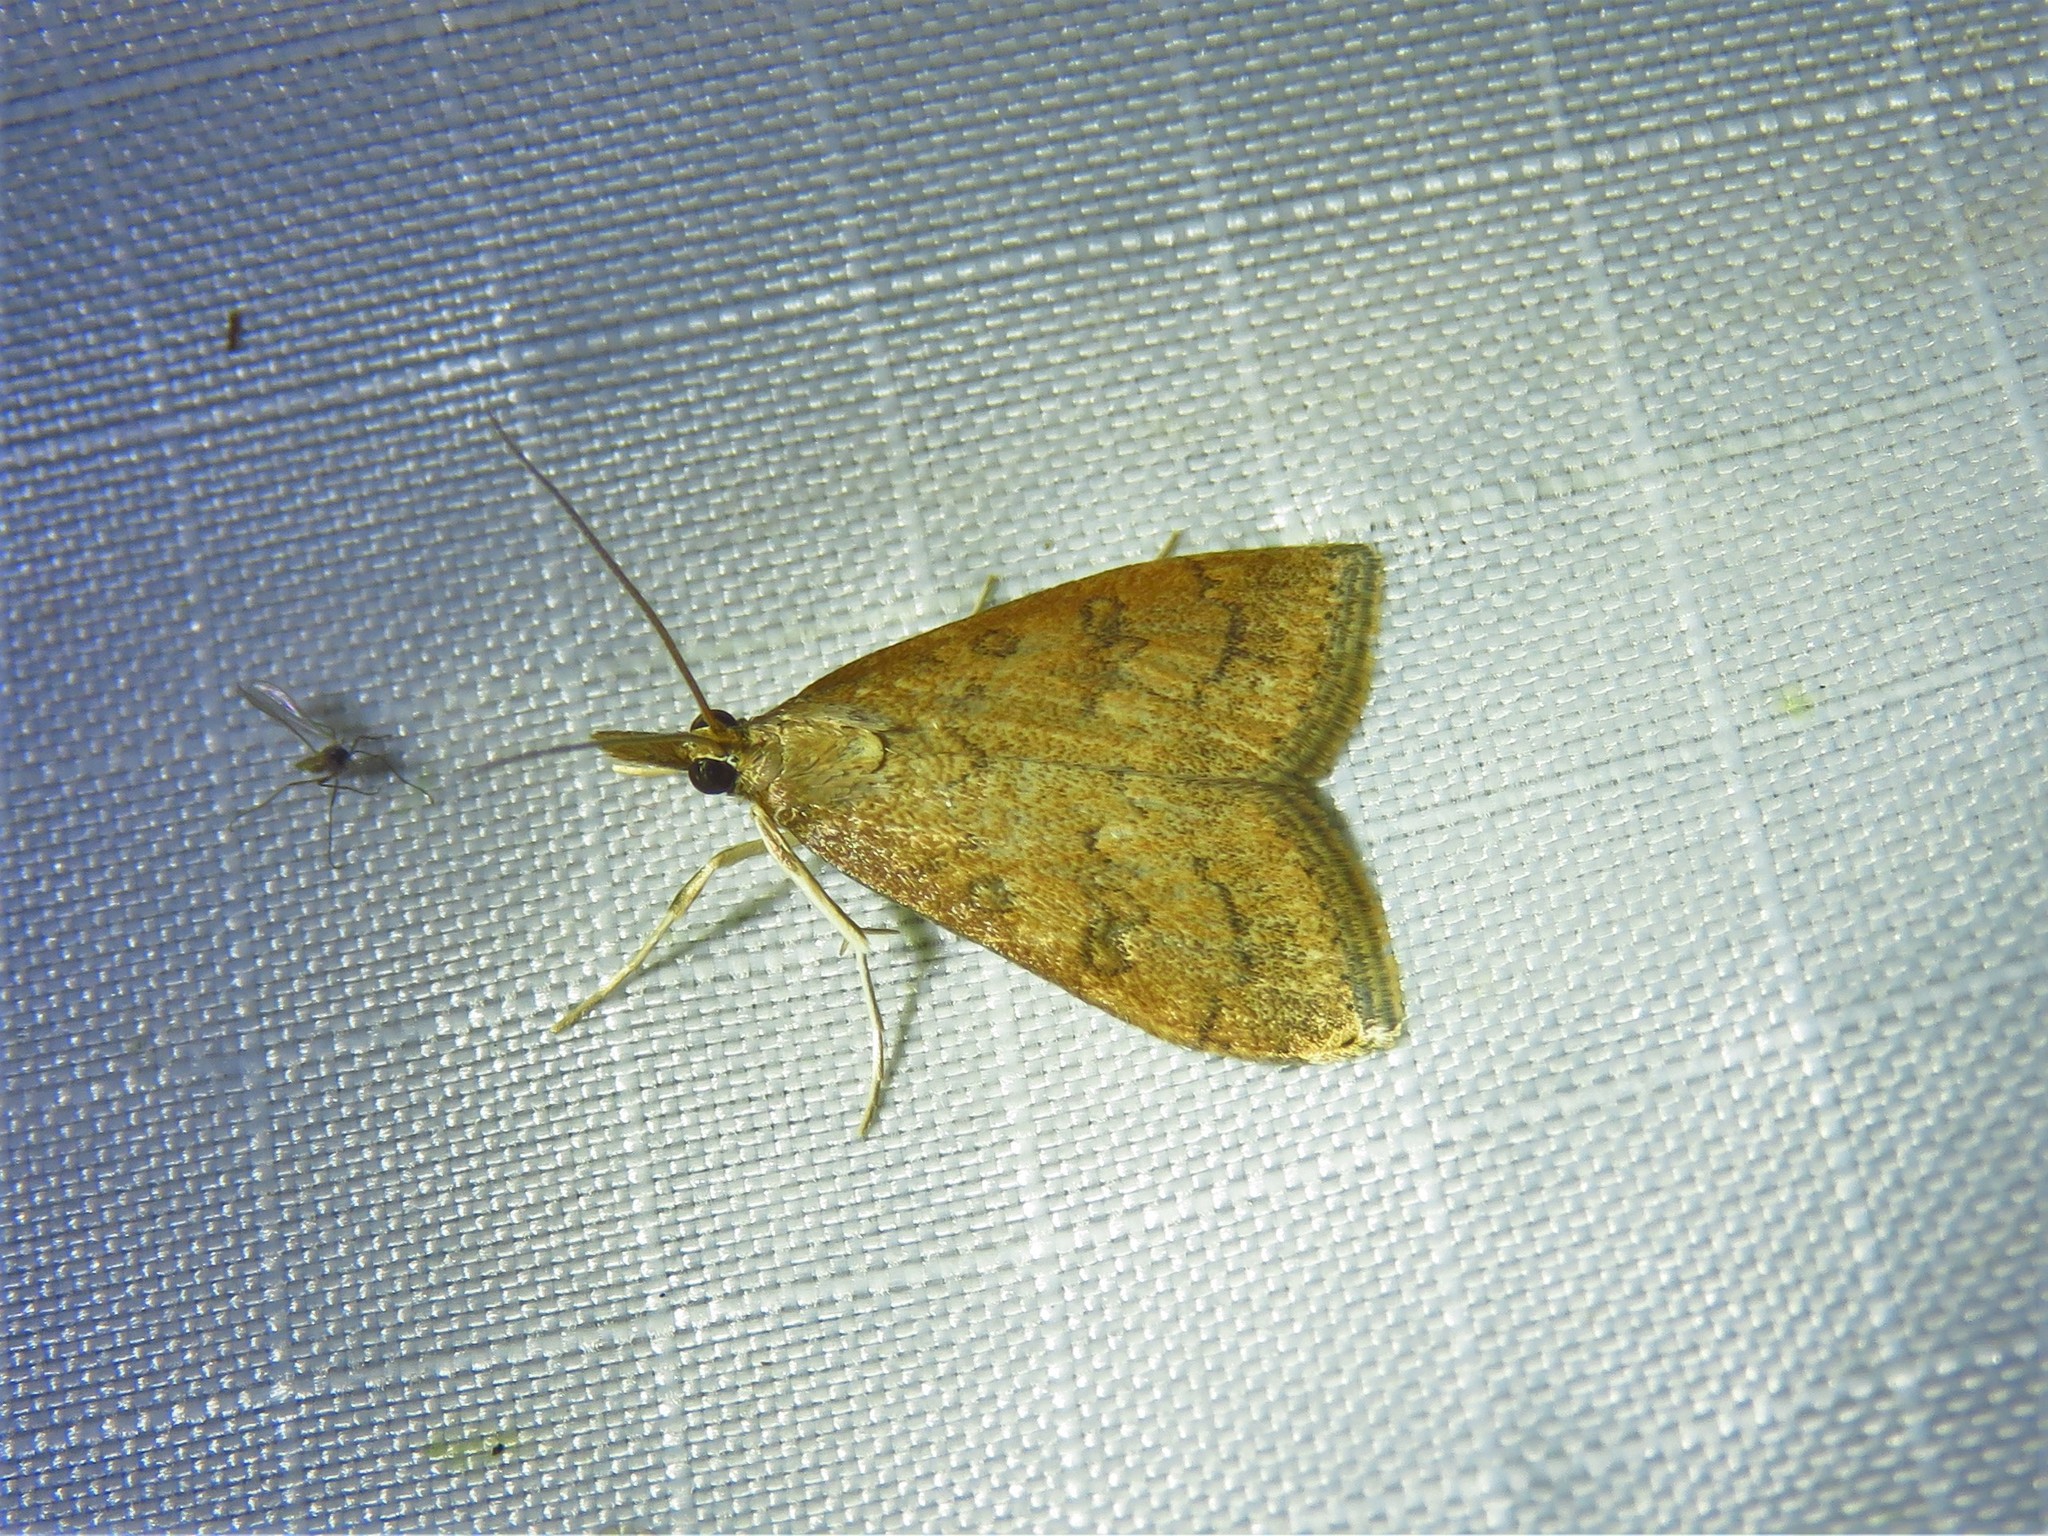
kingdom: Animalia
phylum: Arthropoda
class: Insecta
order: Lepidoptera
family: Crambidae
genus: Udea
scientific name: Udea rubigalis
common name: Celery leaftier moth
